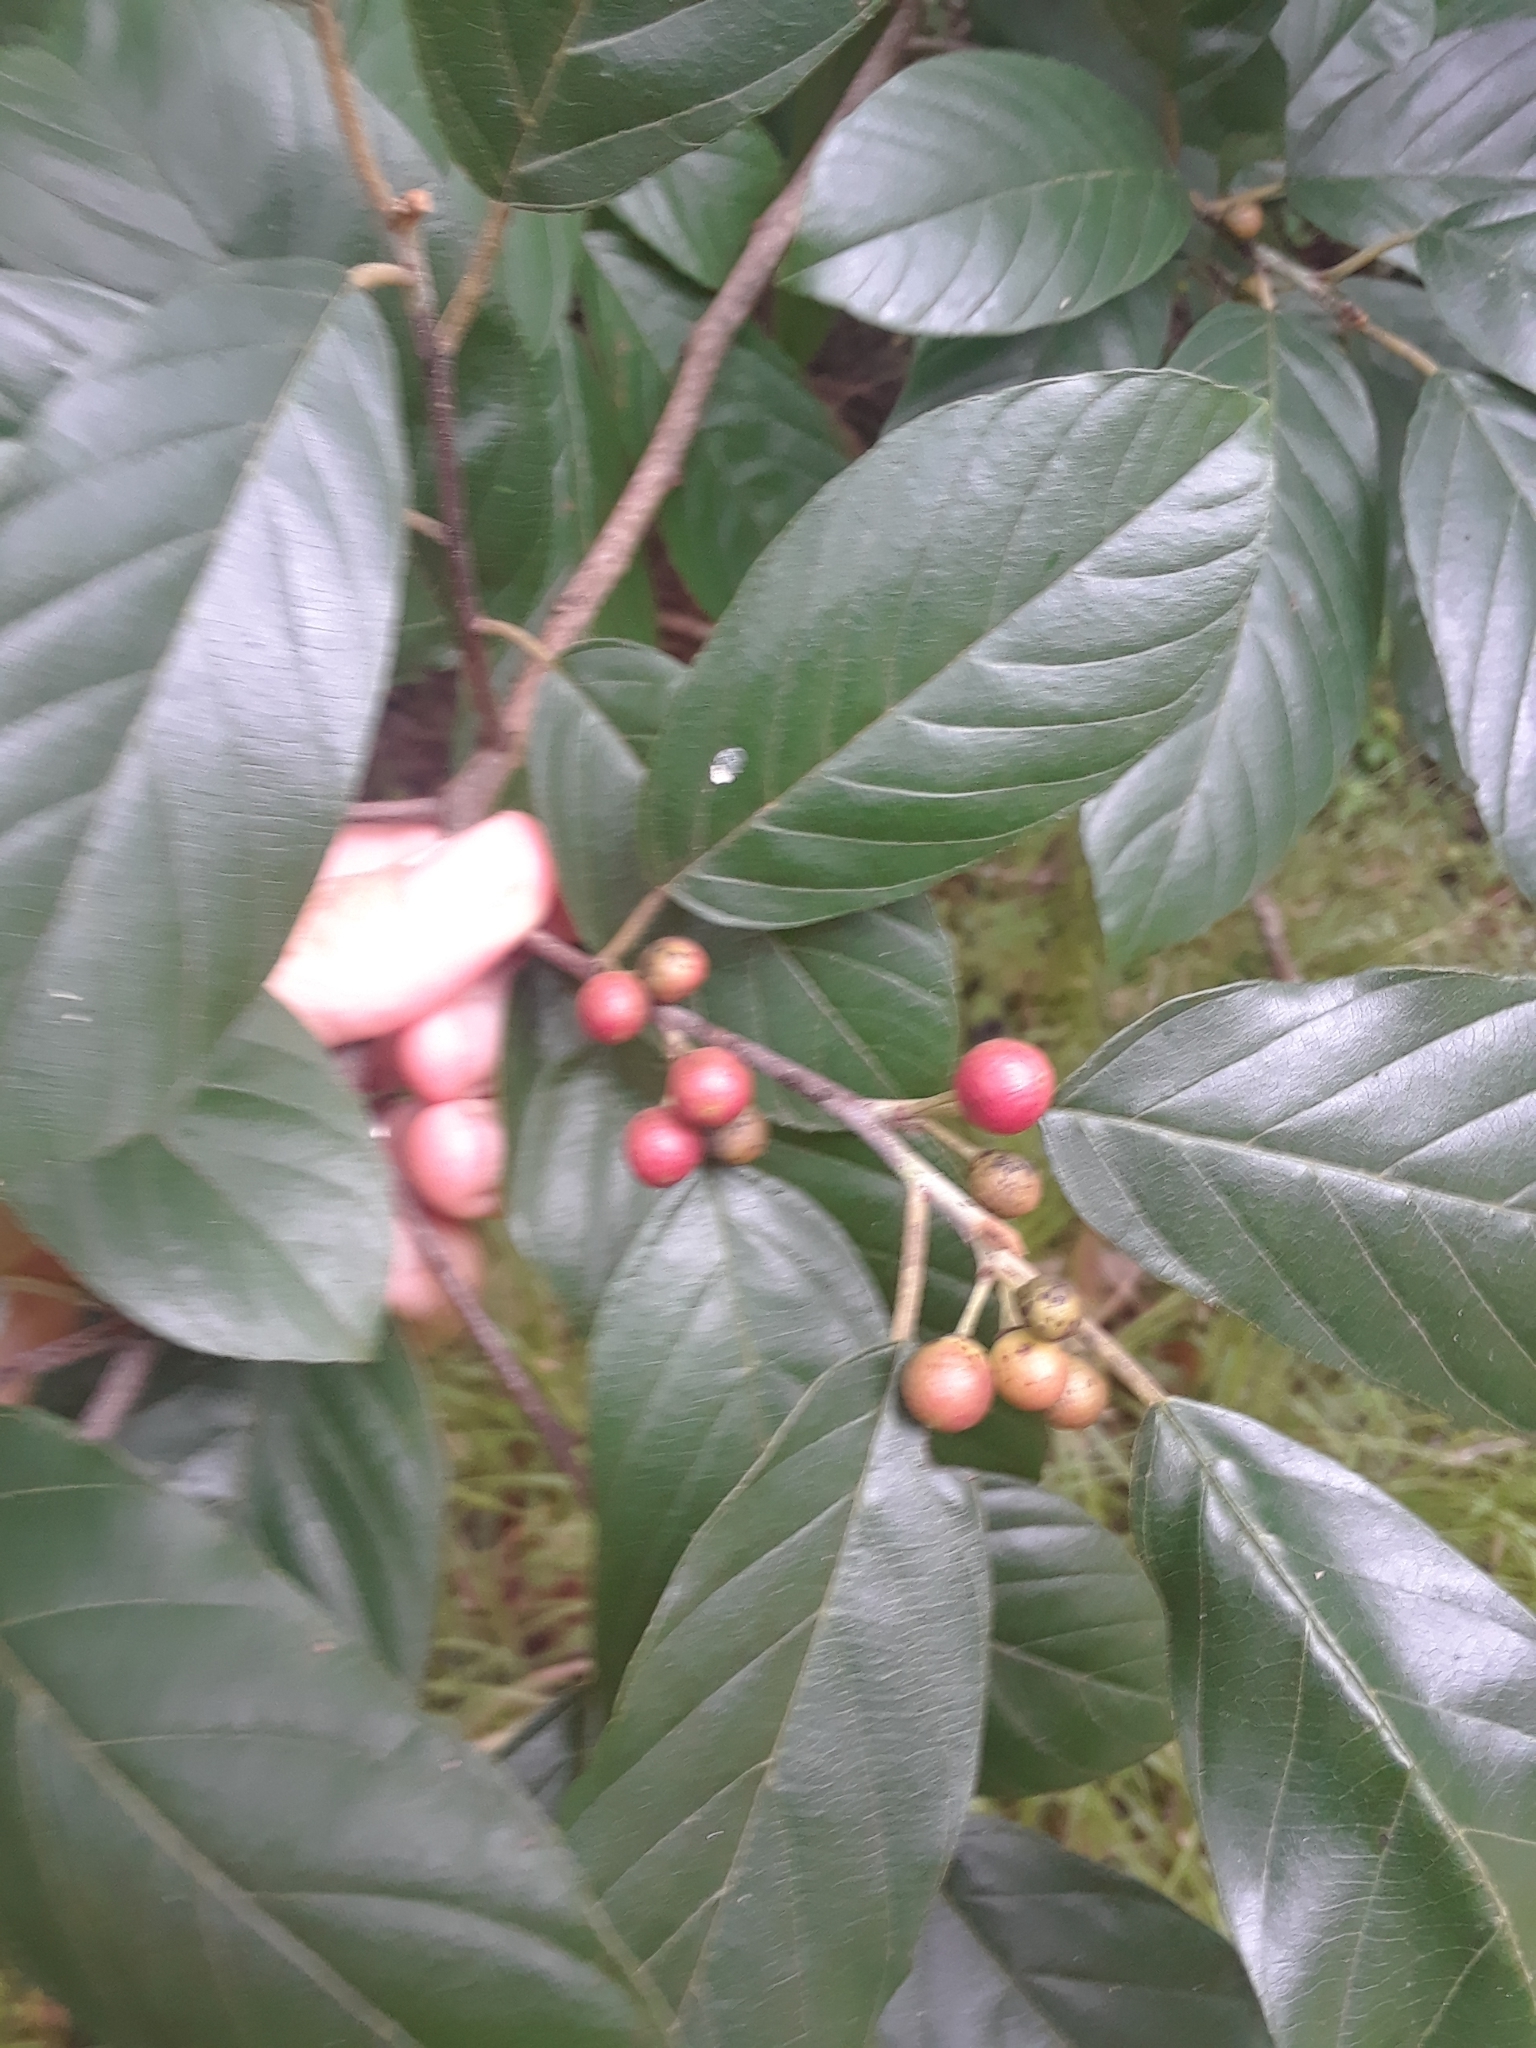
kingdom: Plantae
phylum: Tracheophyta
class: Magnoliopsida
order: Rosales
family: Rhamnaceae
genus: Frangula
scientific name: Frangula caroliniana
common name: Carolina buckthorn
